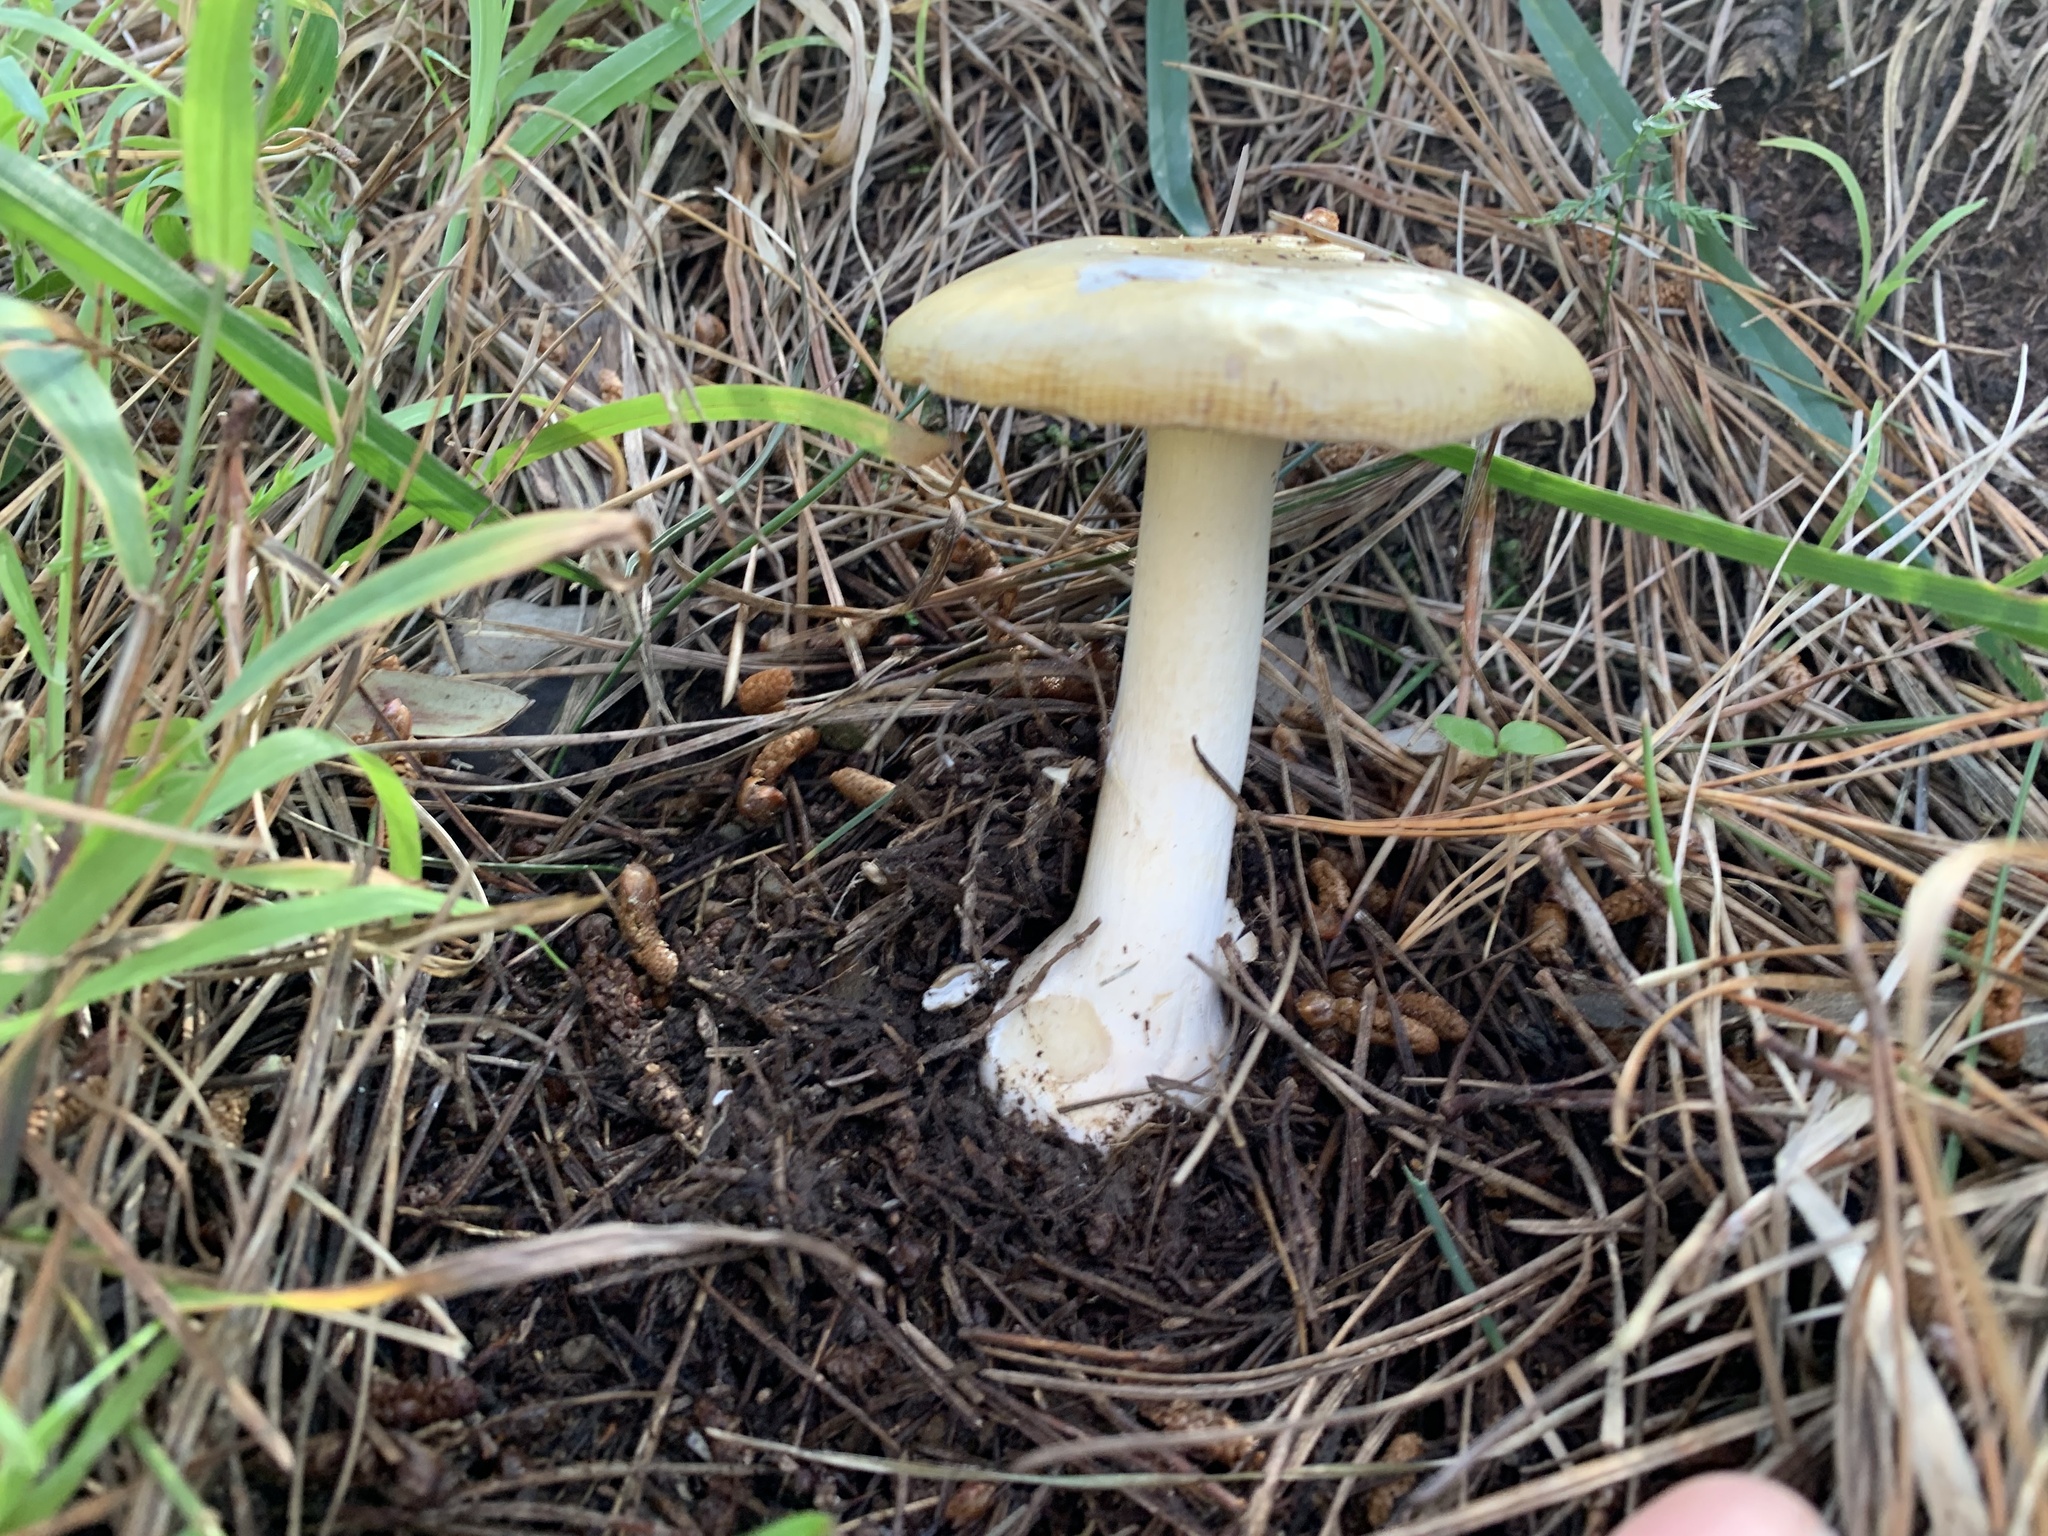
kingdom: Fungi
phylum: Basidiomycota
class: Agaricomycetes
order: Agaricales
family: Amanitaceae
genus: Amanita
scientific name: Amanita gemmata
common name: Jewelled amanita
